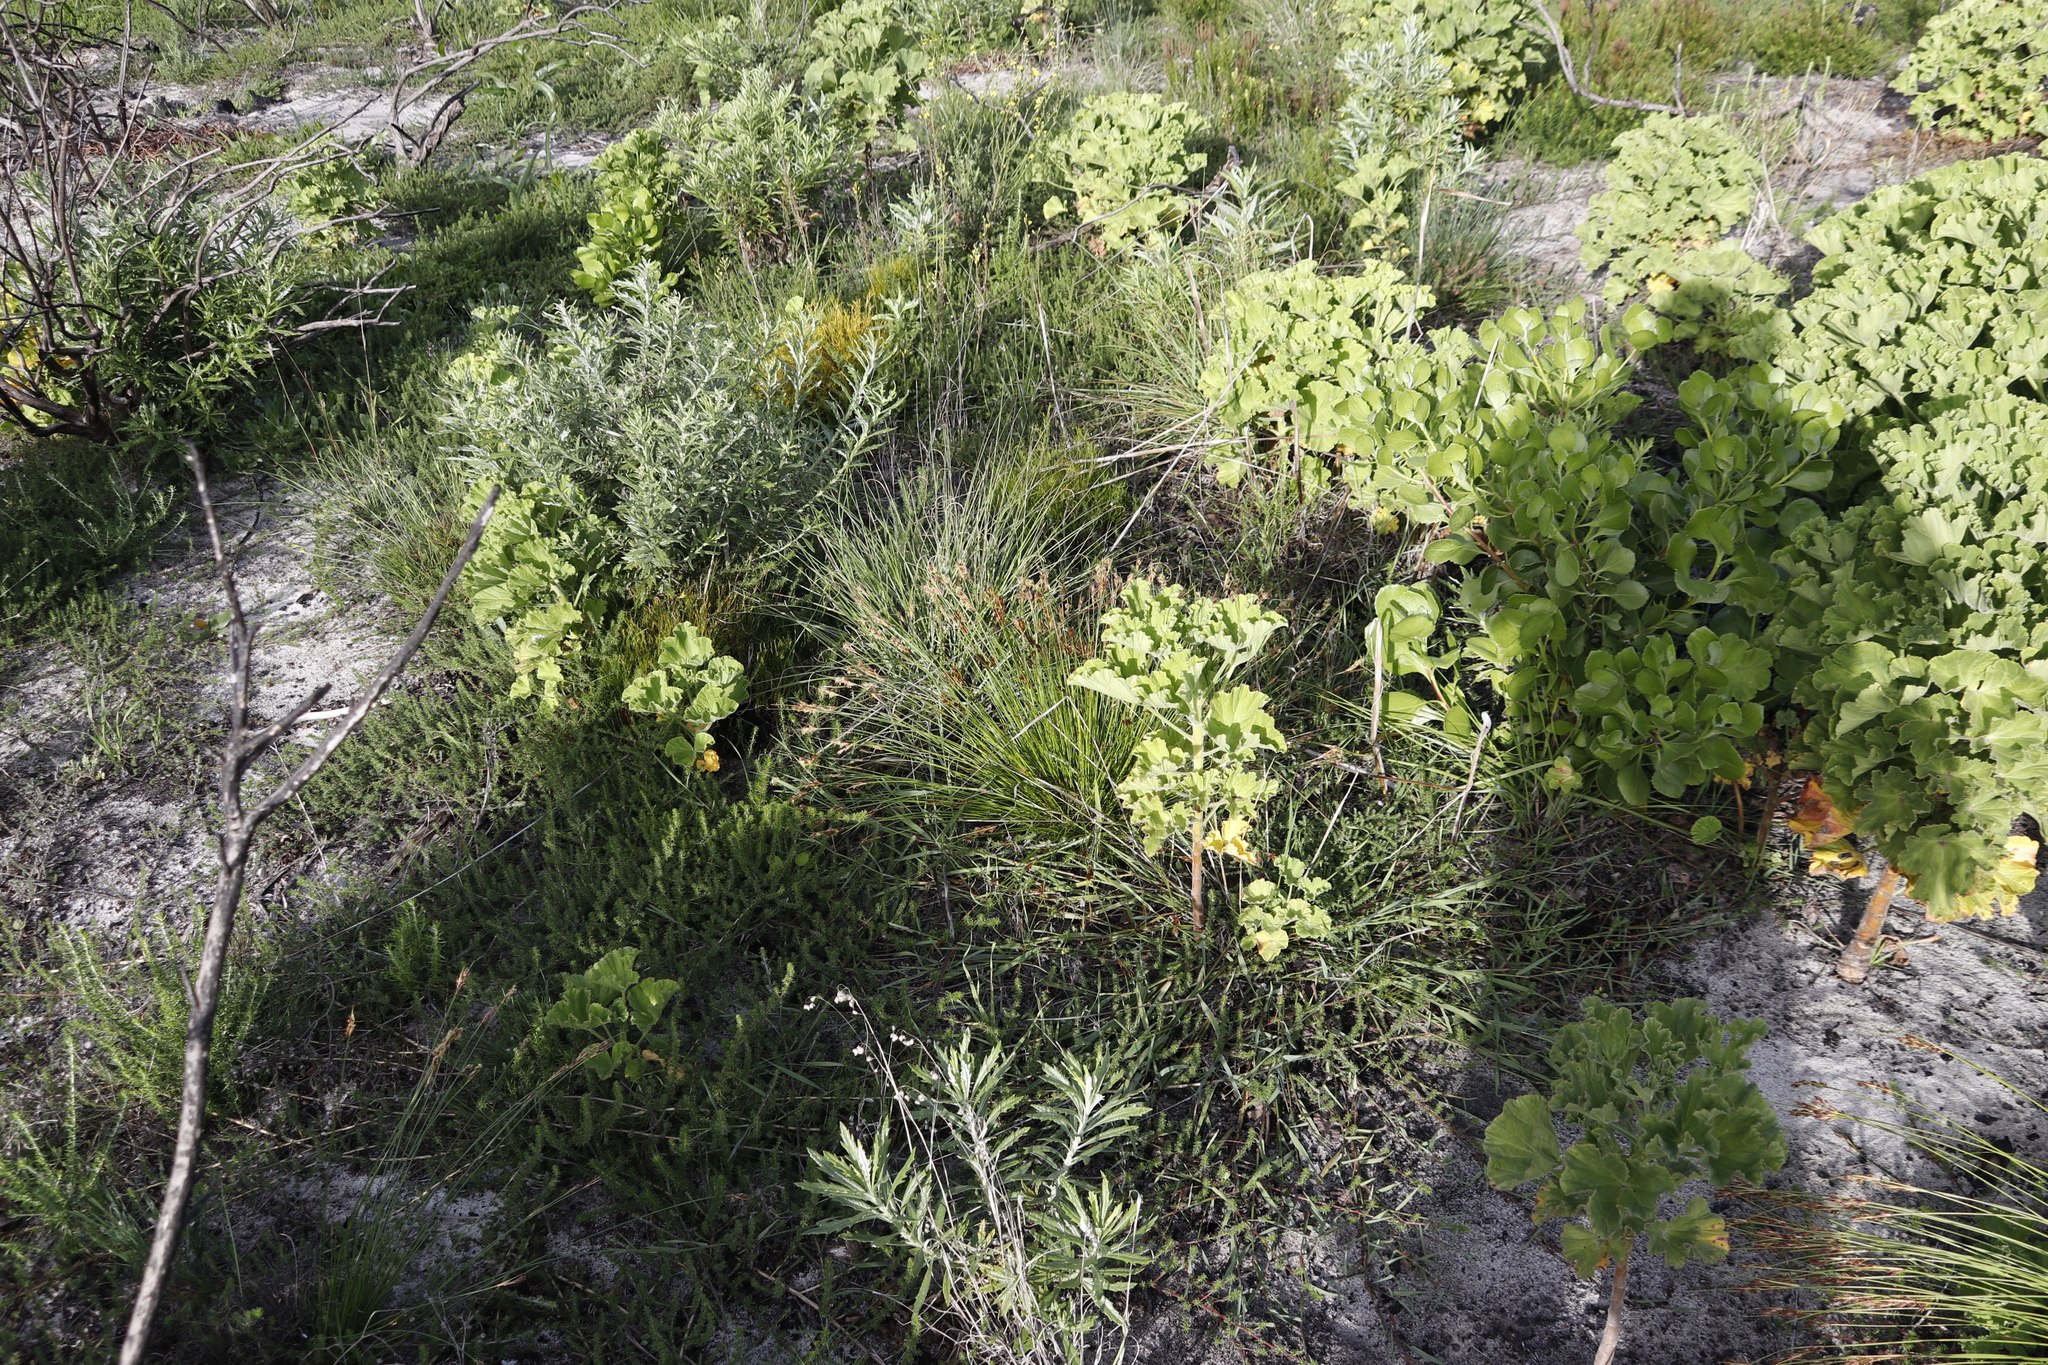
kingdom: Plantae
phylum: Tracheophyta
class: Magnoliopsida
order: Geraniales
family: Geraniaceae
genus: Pelargonium
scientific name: Pelargonium cucullatum
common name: Tree pelargonium
